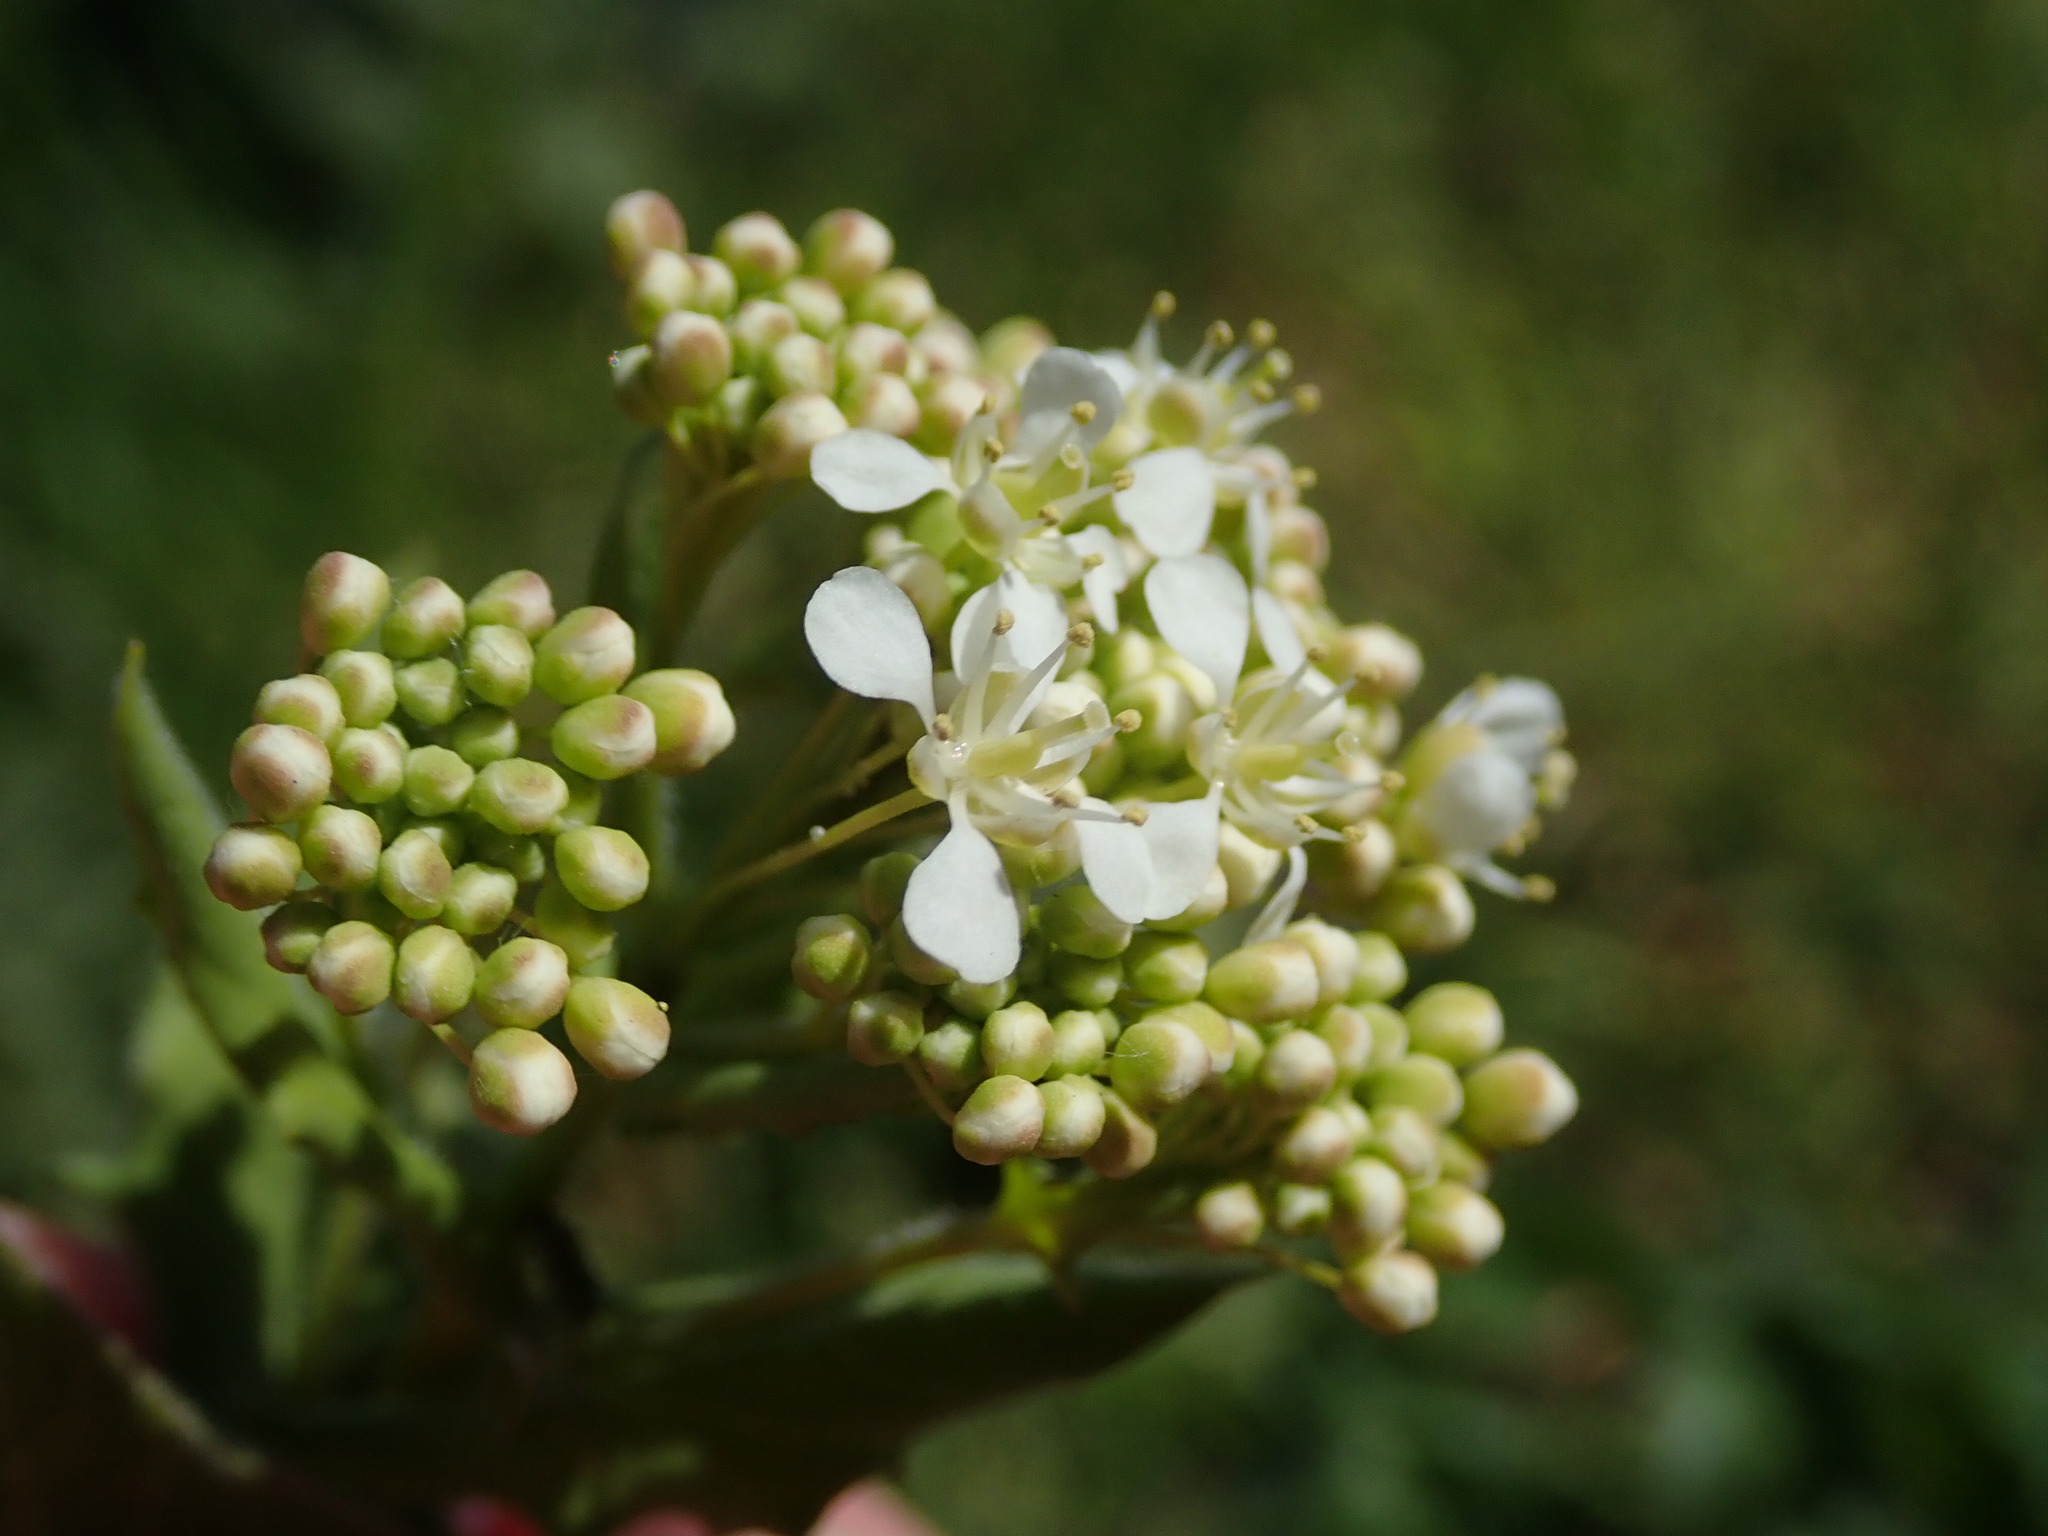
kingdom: Plantae
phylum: Tracheophyta
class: Magnoliopsida
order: Brassicales
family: Brassicaceae
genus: Lepidium
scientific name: Lepidium draba
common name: Hoary cress
